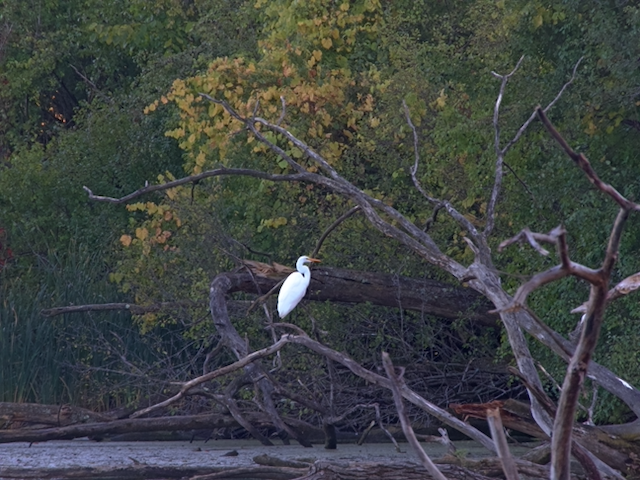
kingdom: Animalia
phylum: Chordata
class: Aves
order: Pelecaniformes
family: Ardeidae
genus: Ardea
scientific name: Ardea alba
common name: Great egret
